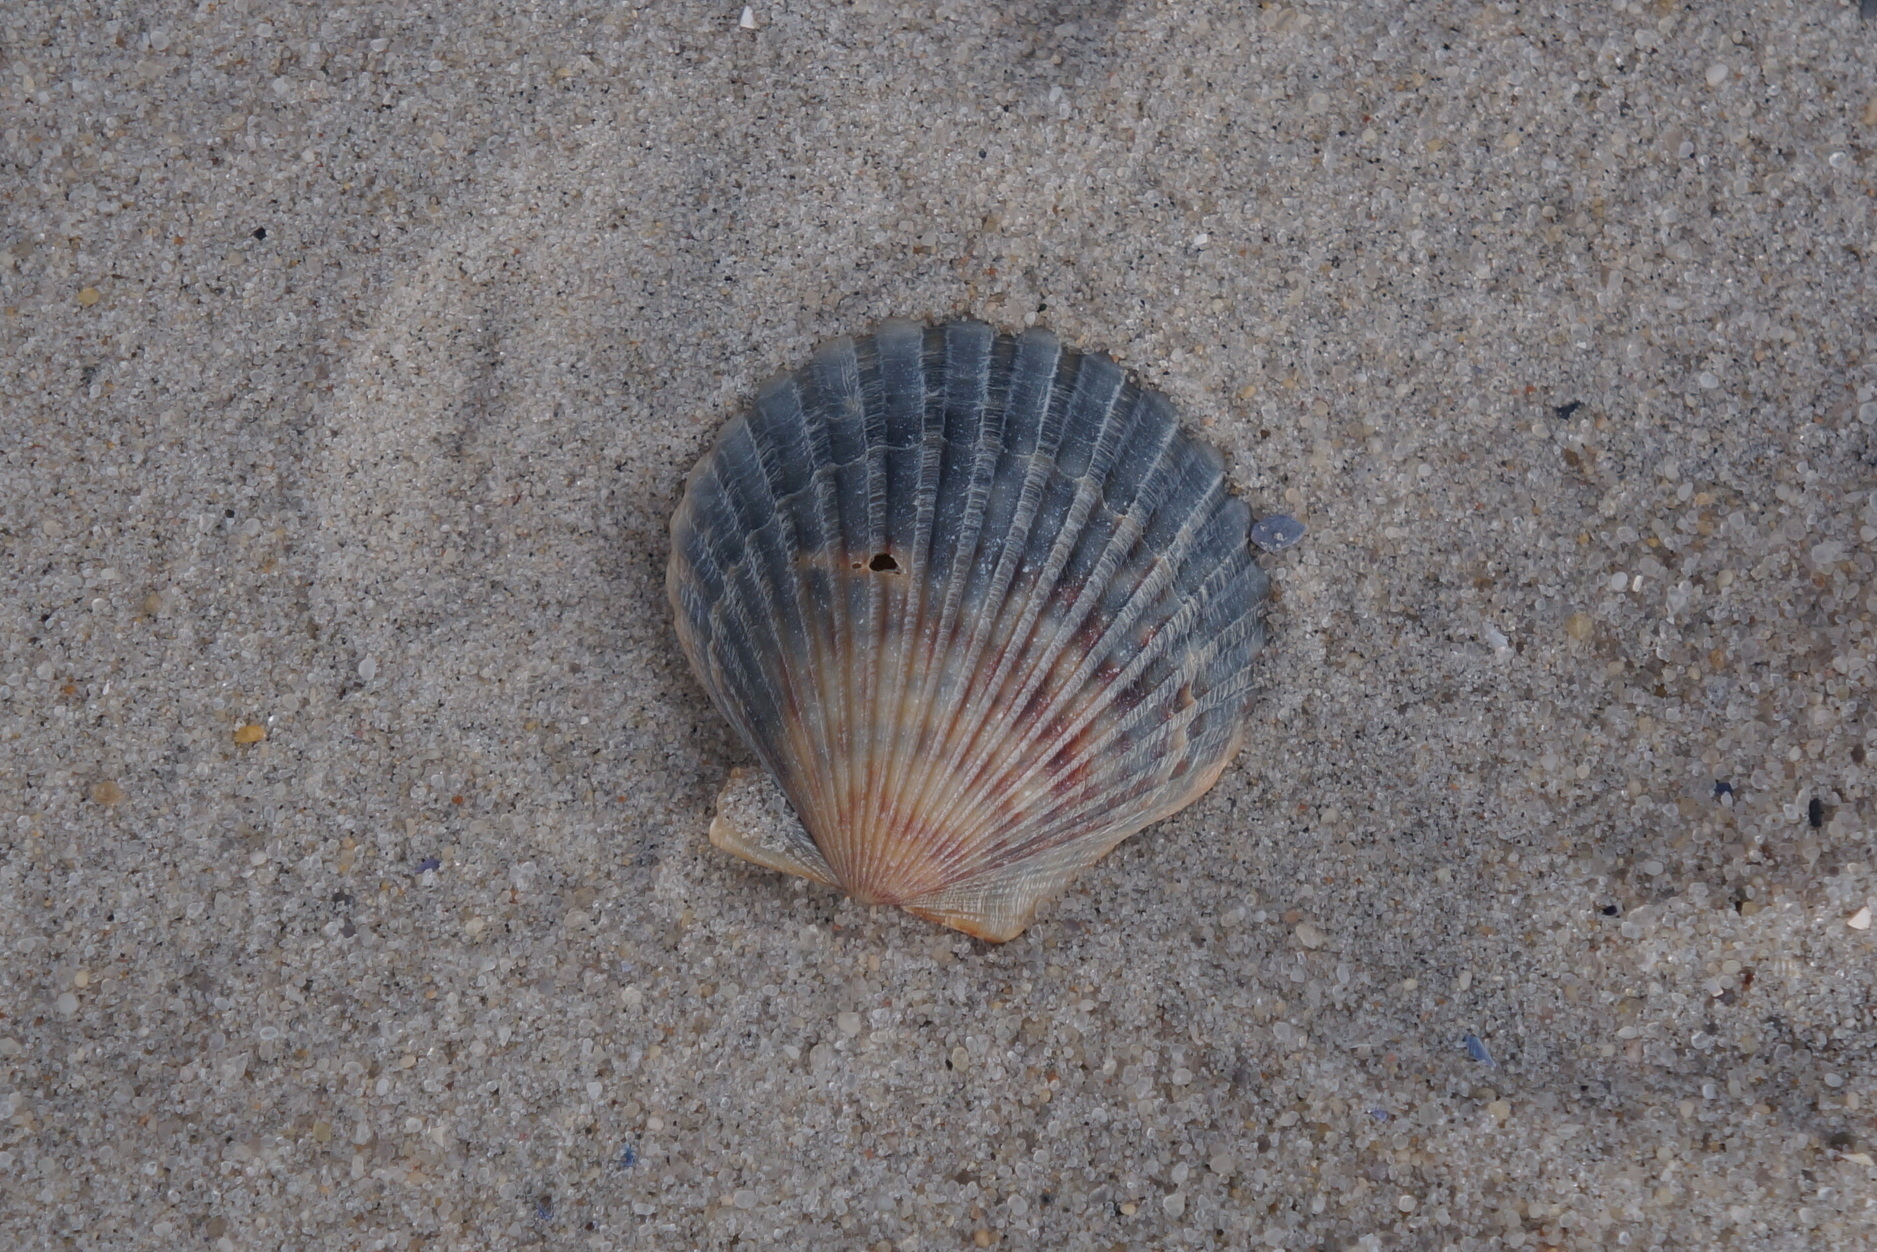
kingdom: Animalia
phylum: Mollusca
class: Bivalvia
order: Pectinida
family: Pectinidae
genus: Argopecten
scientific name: Argopecten irradians
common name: Atlantic bay scallop
